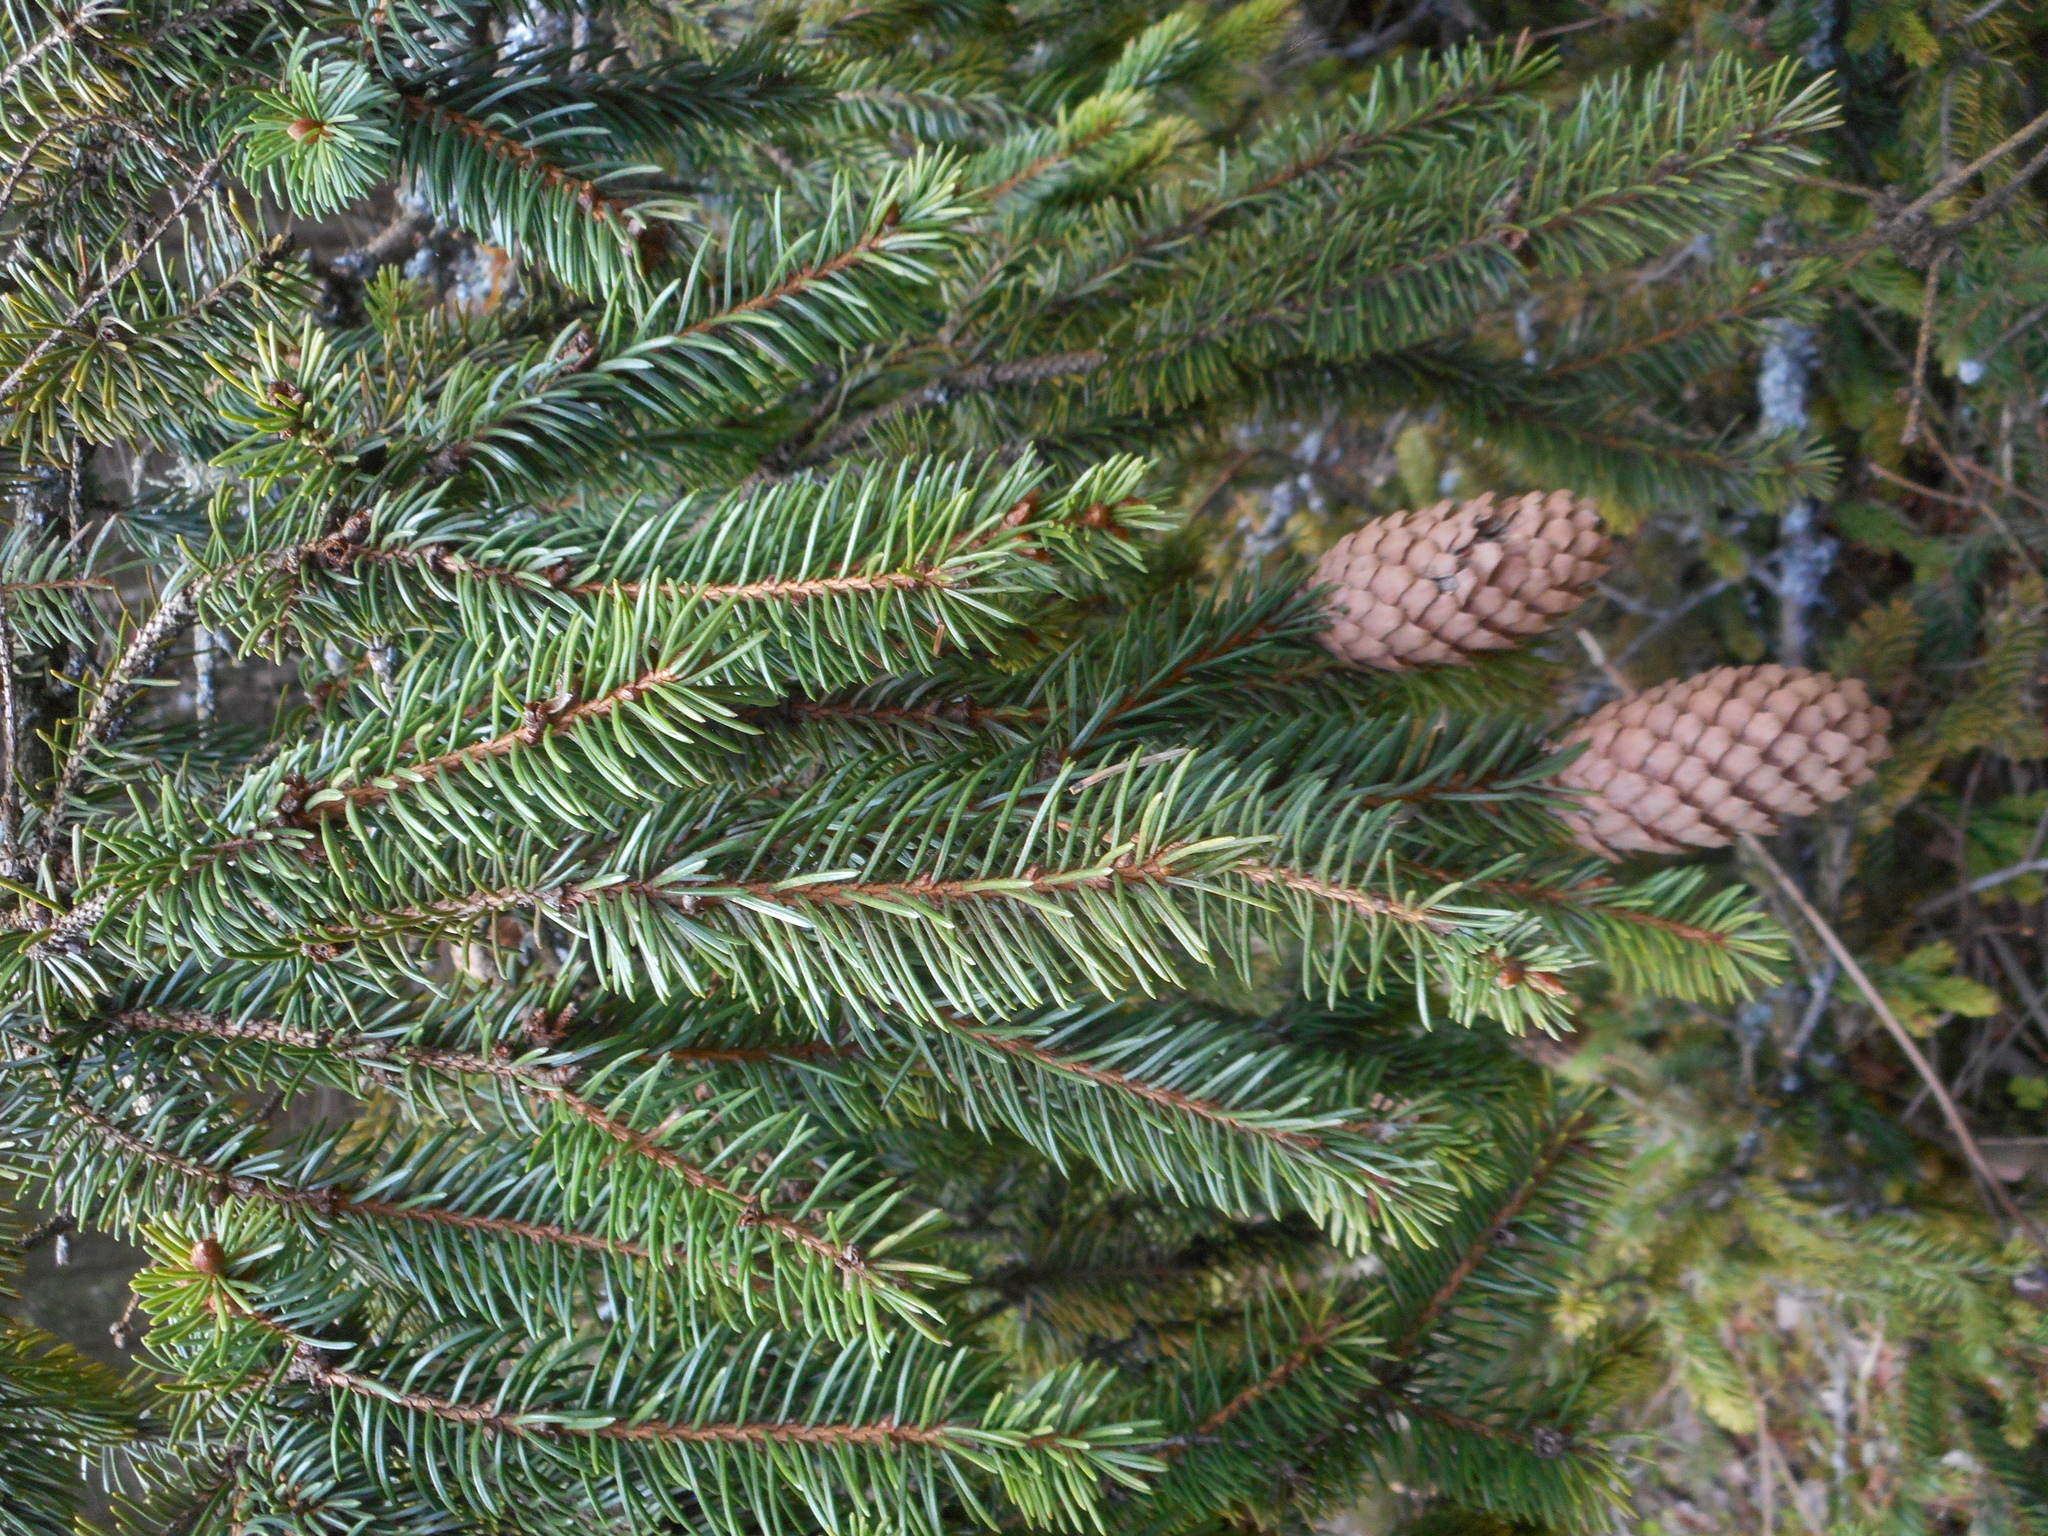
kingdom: Plantae
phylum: Tracheophyta
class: Pinopsida
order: Pinales
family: Pinaceae
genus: Picea
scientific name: Picea abies
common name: Norway spruce
